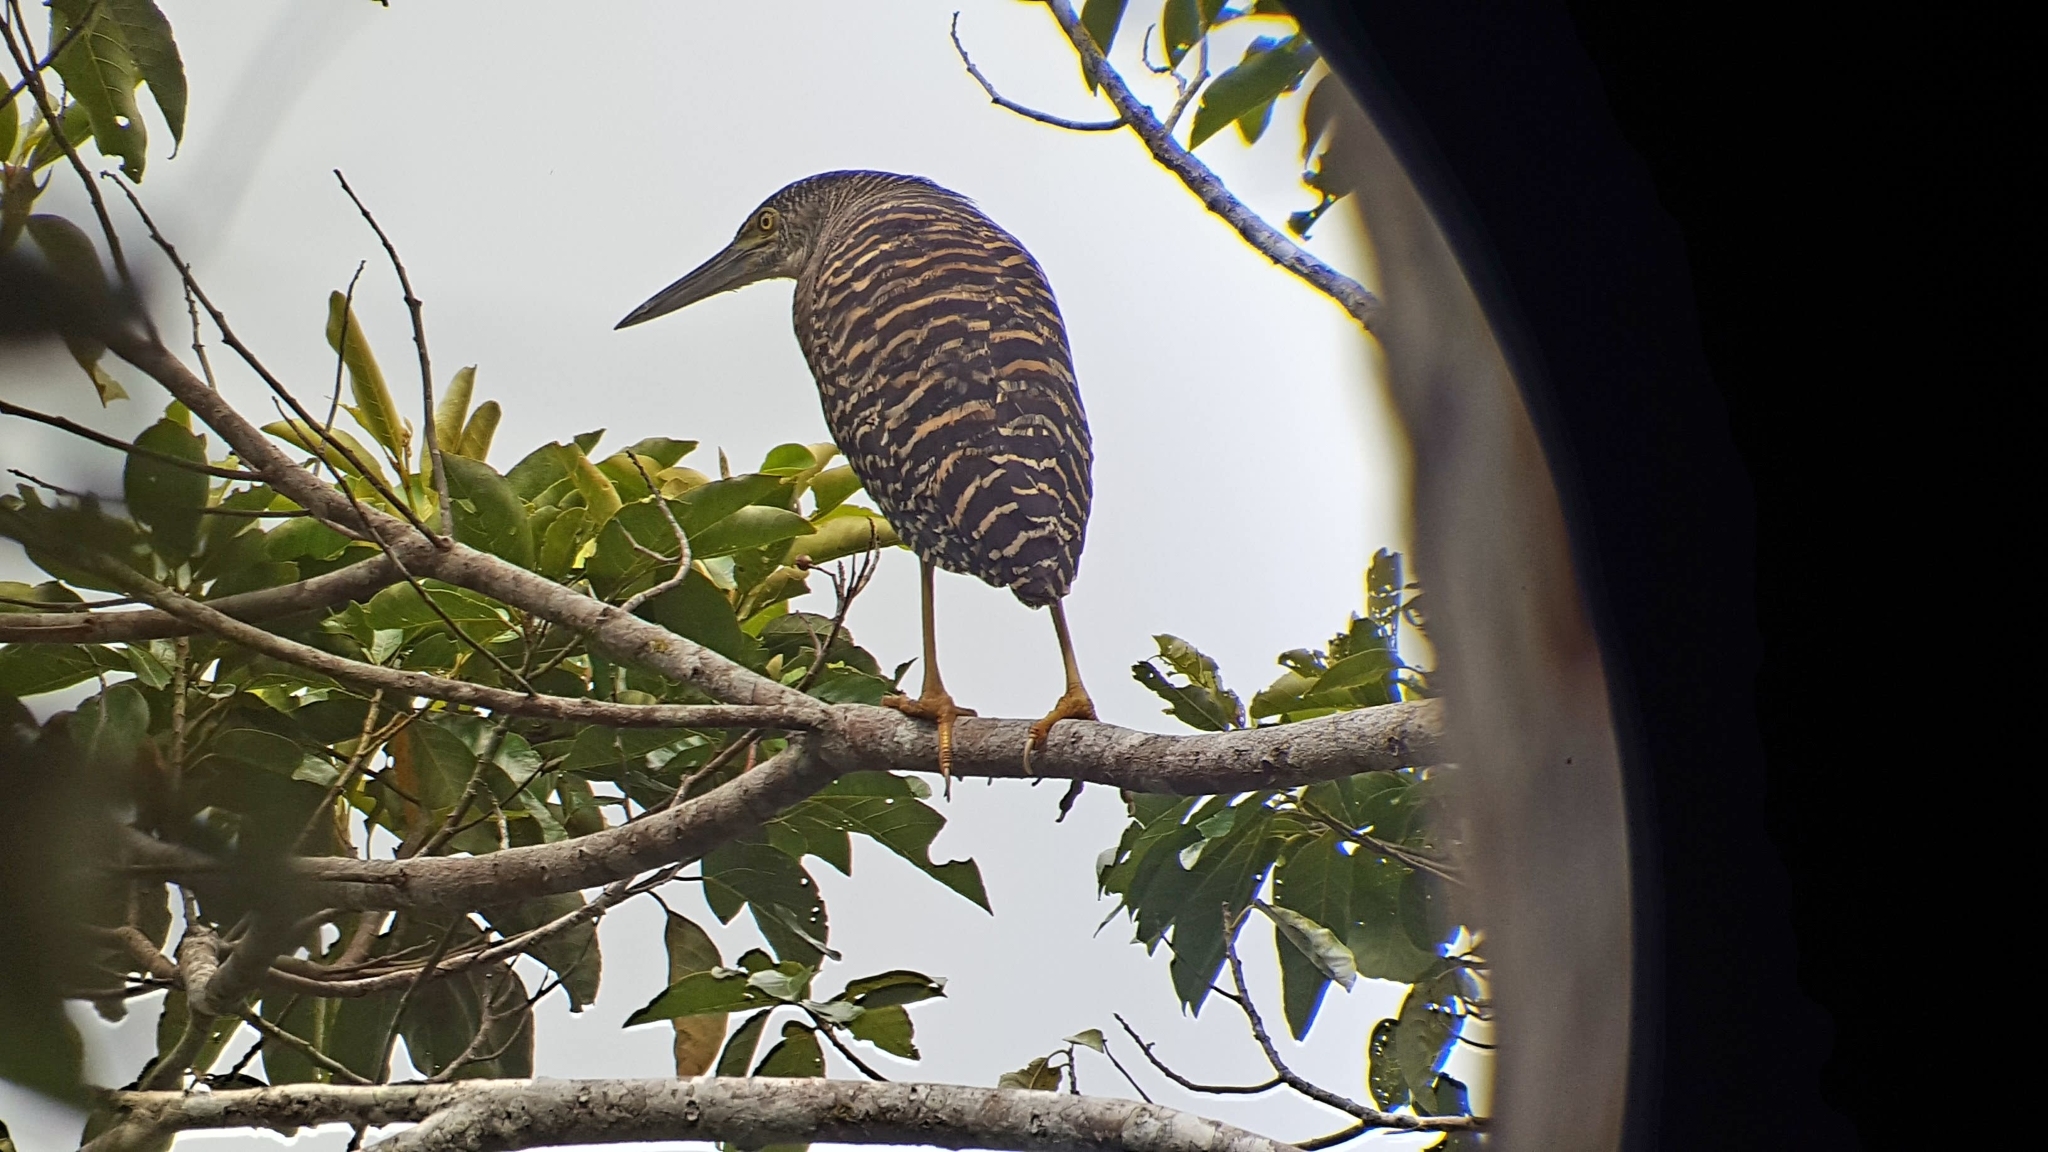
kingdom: Animalia
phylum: Chordata
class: Aves
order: Pelecaniformes
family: Ardeidae
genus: Zonerodius
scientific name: Zonerodius heliosylus
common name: Forest bittern
